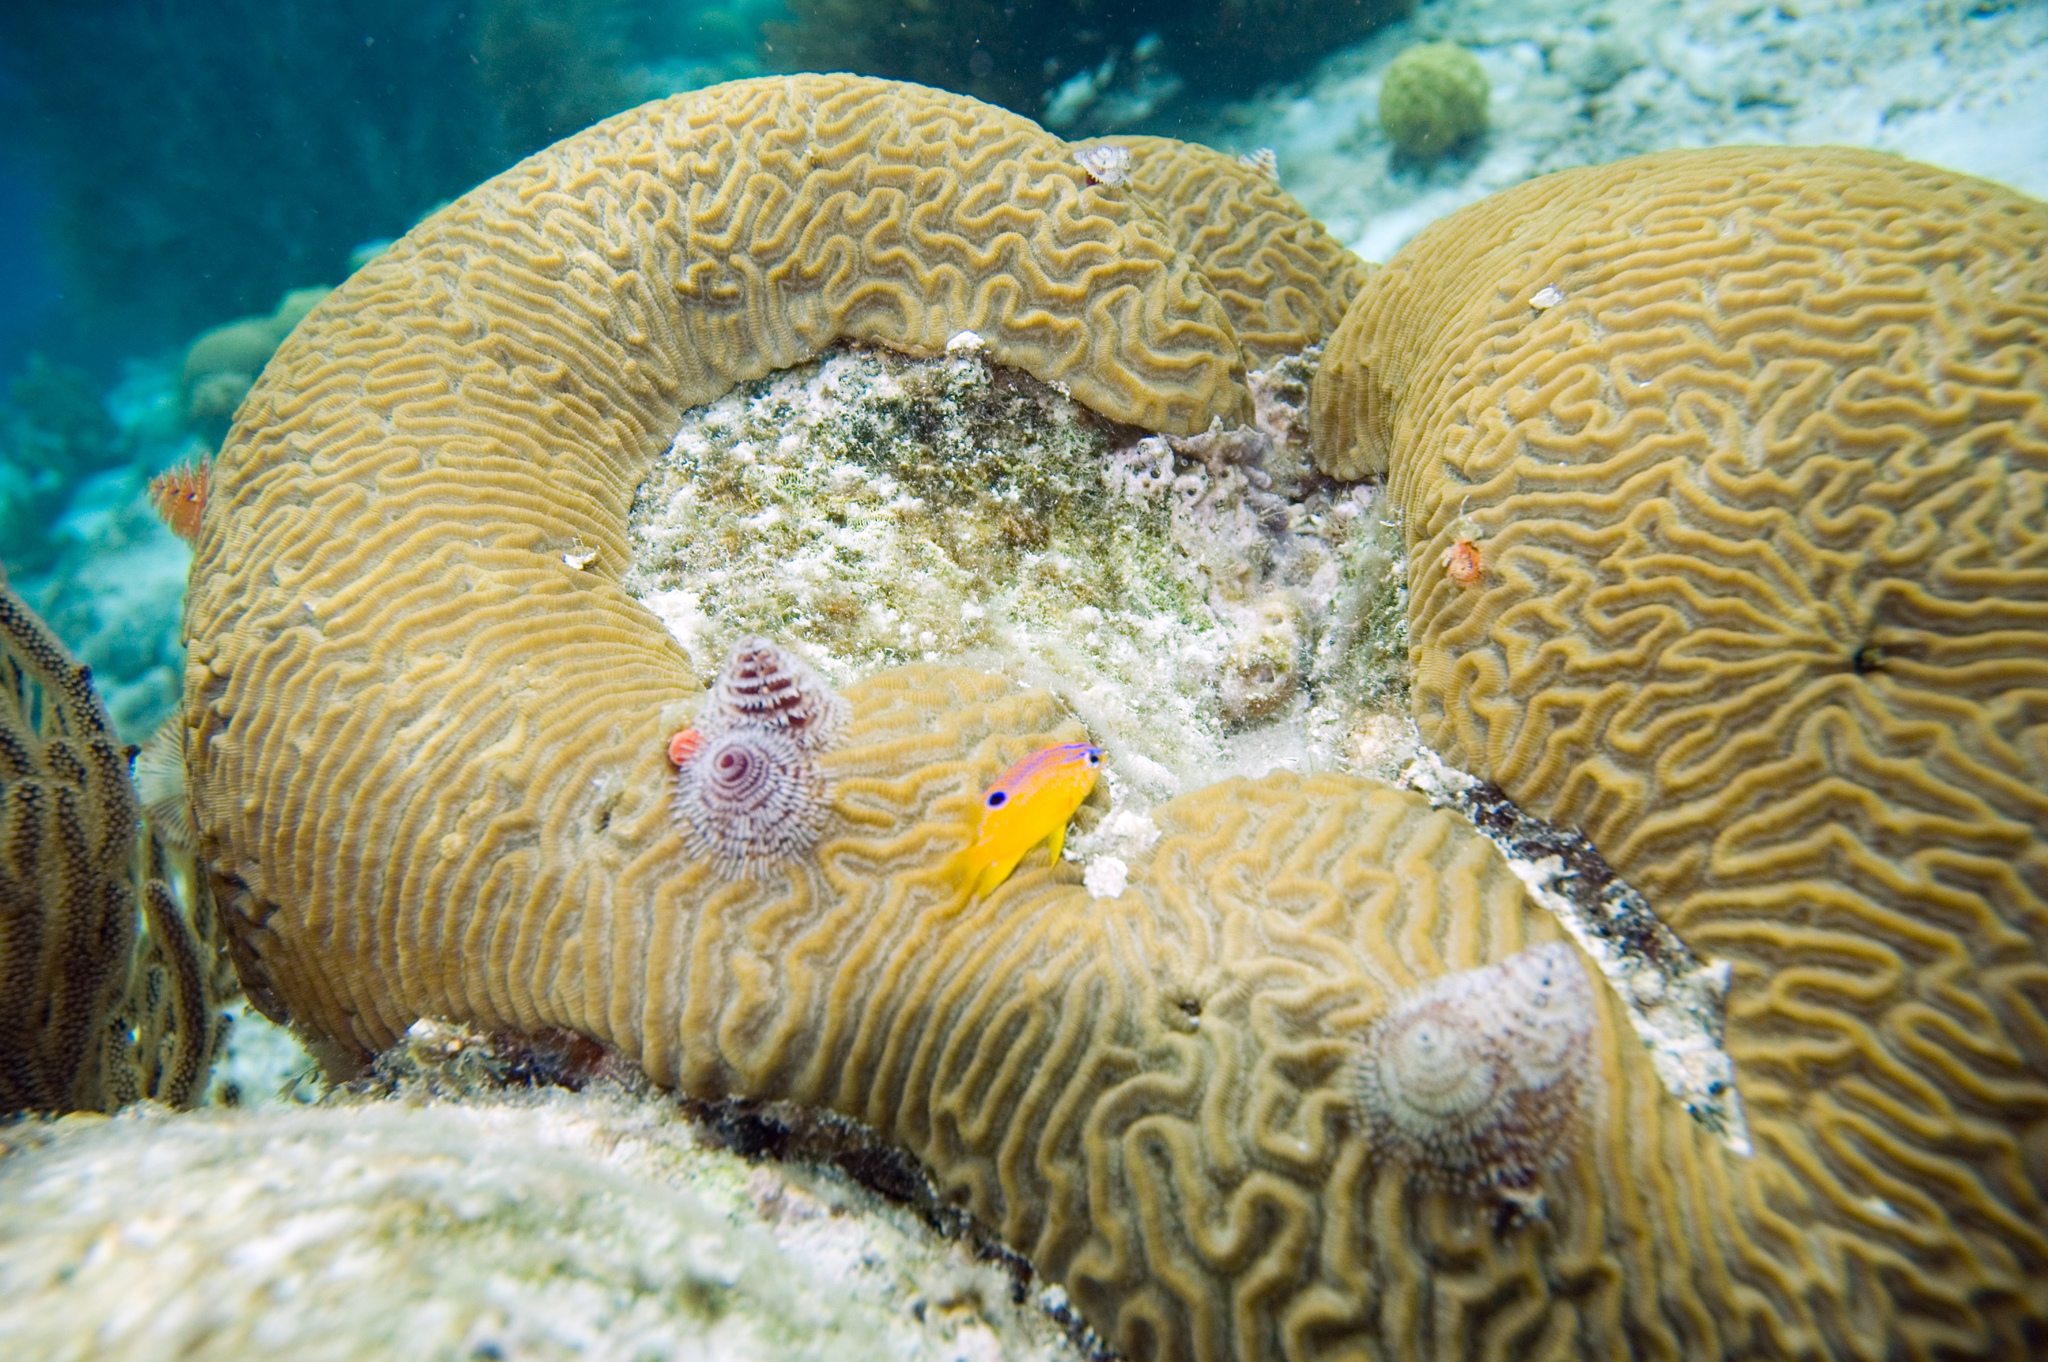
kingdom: Animalia
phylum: Cnidaria
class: Anthozoa
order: Scleractinia
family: Faviidae
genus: Pseudodiploria
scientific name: Pseudodiploria strigosa
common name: Symmetrical brain coral
